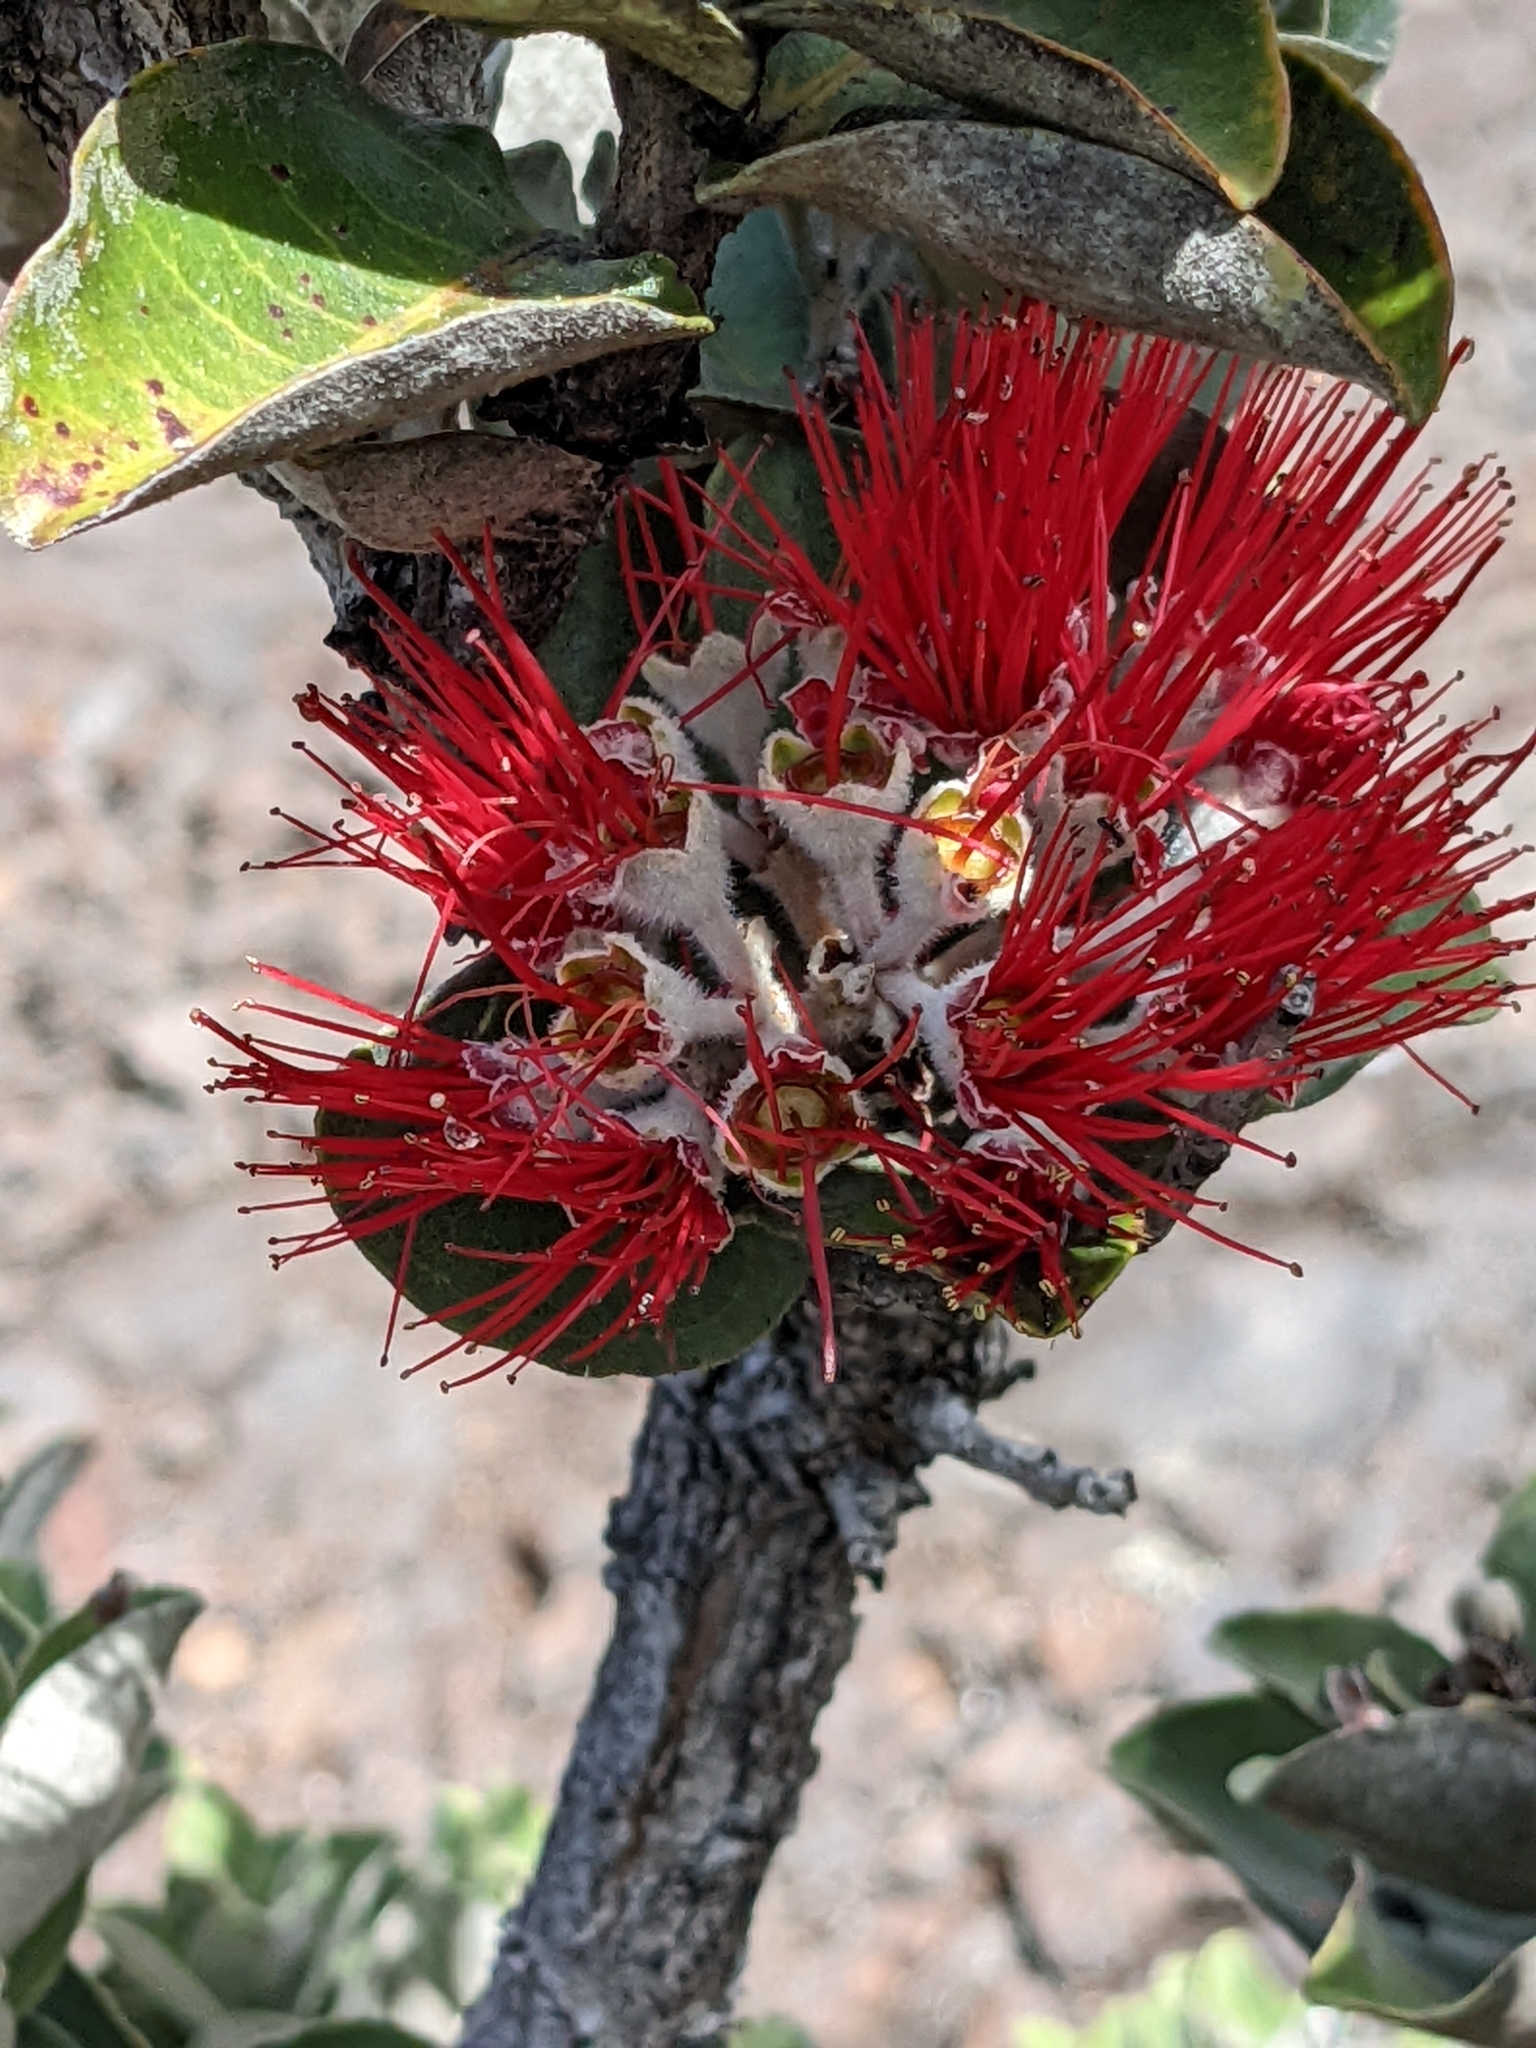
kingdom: Plantae
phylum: Tracheophyta
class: Magnoliopsida
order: Myrtales
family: Myrtaceae
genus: Metrosideros
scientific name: Metrosideros polymorpha
